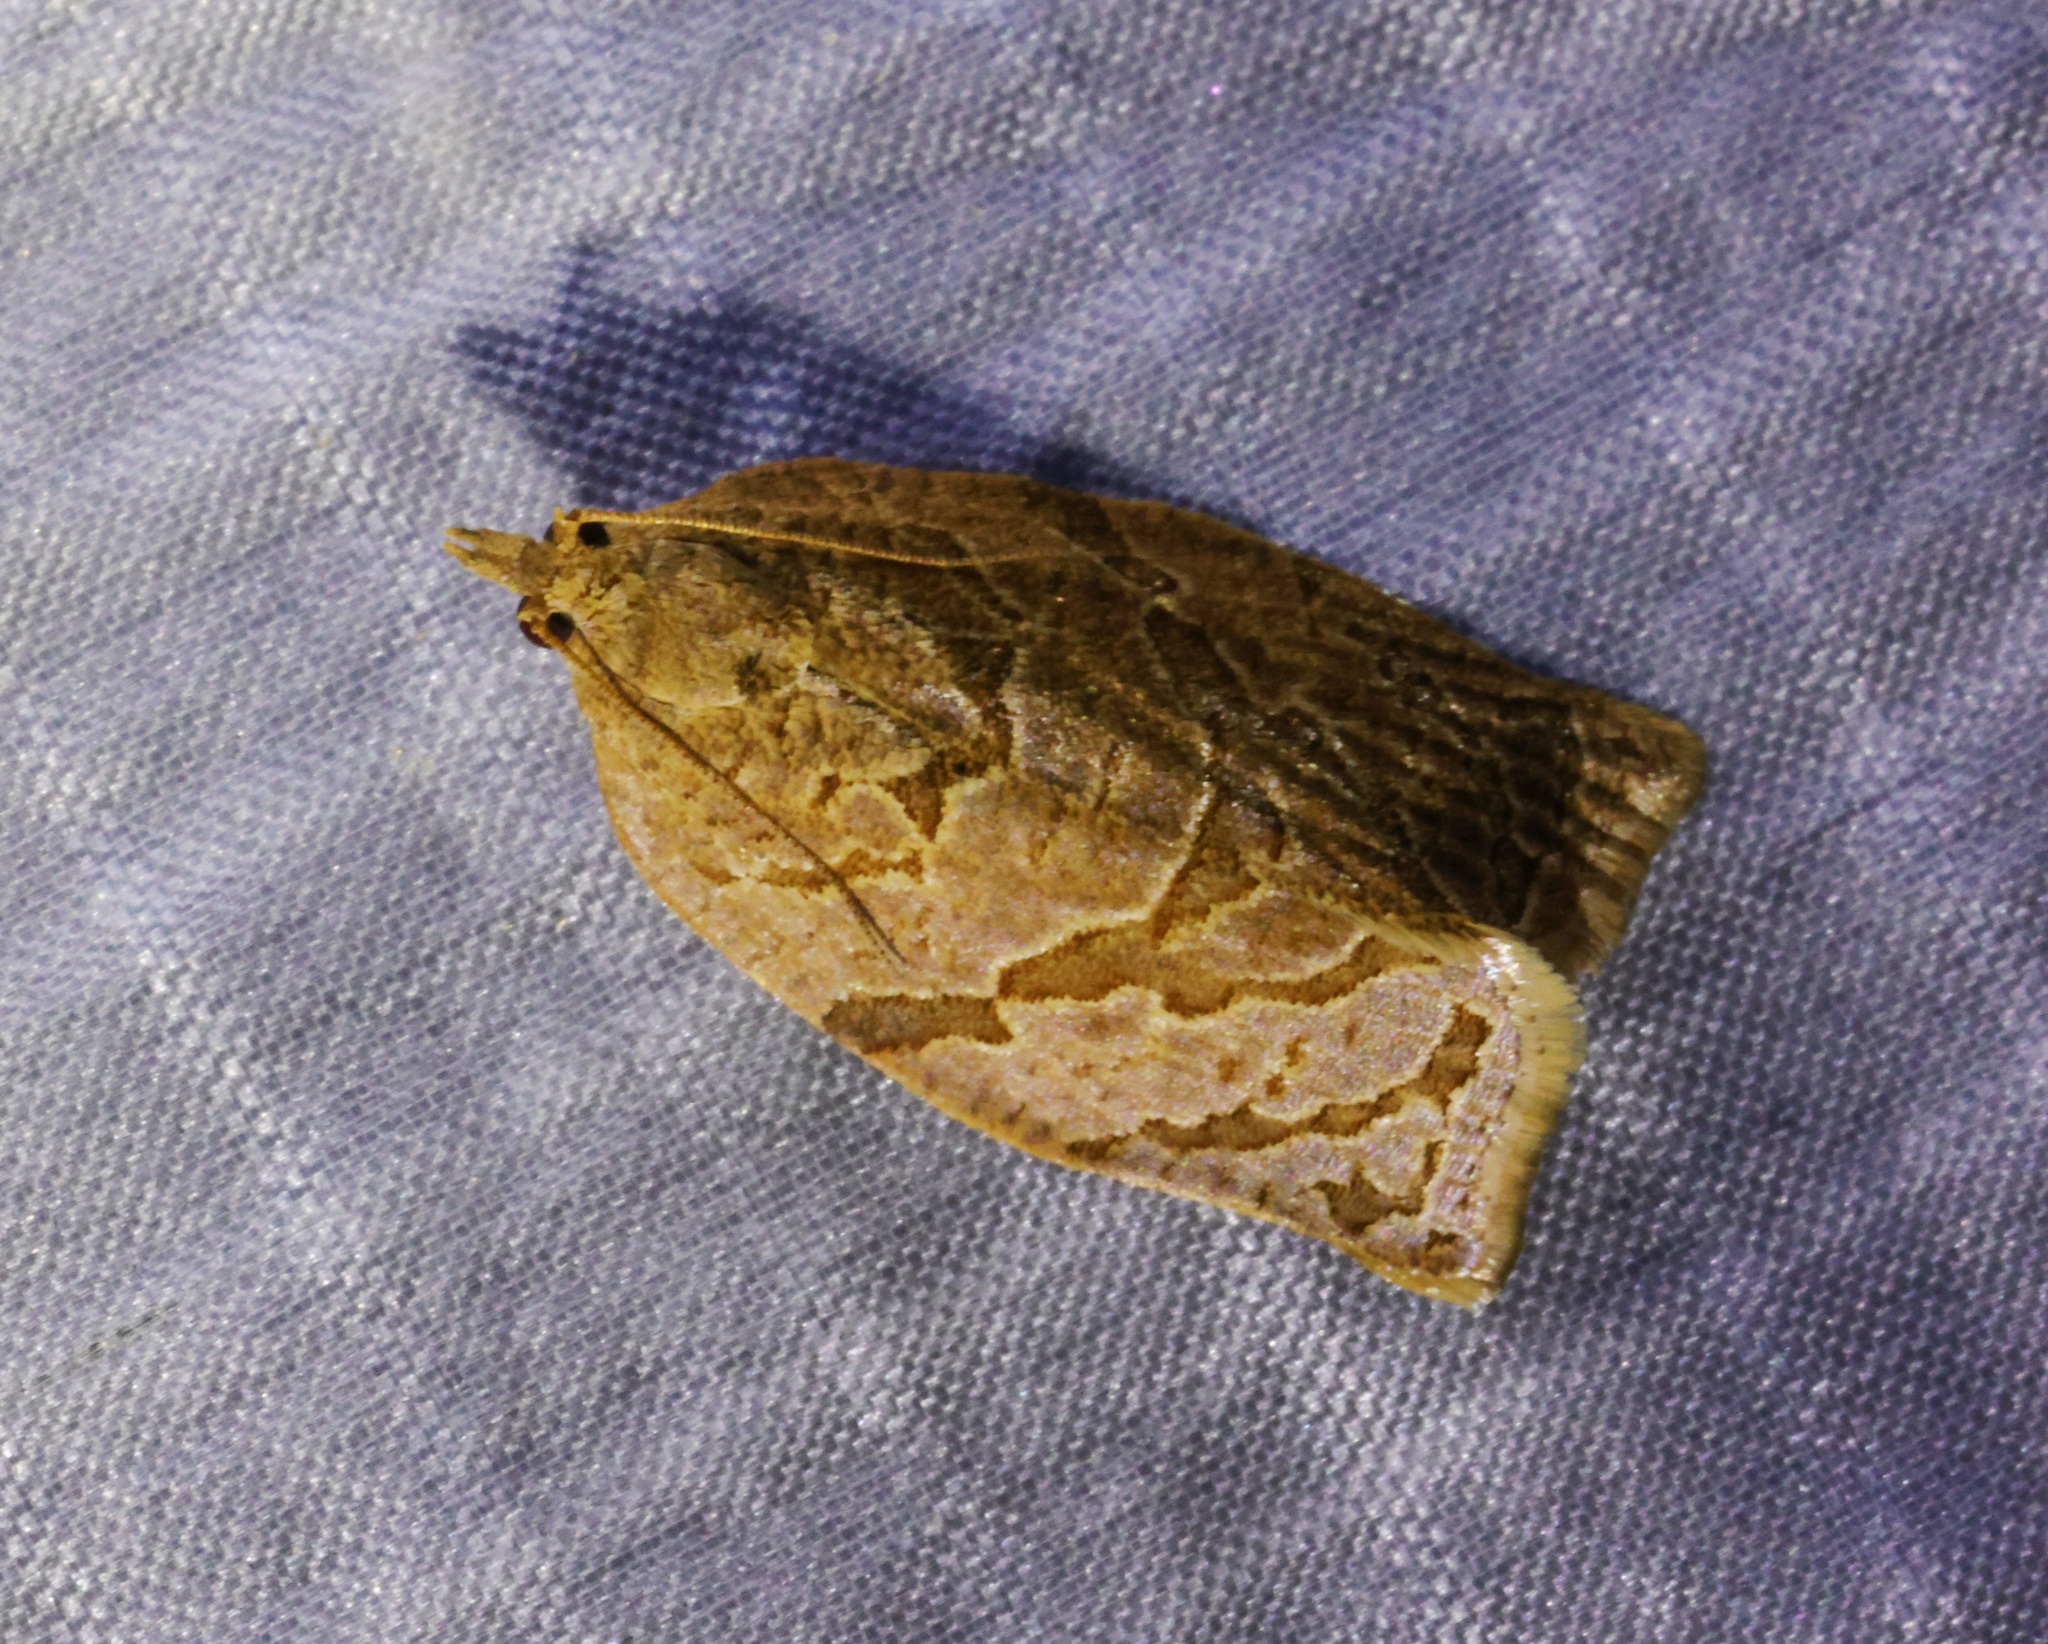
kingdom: Animalia
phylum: Arthropoda
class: Insecta
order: Lepidoptera
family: Tortricidae
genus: Adoxophyes
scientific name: Adoxophyes privatana
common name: Asian orchid tortrix
